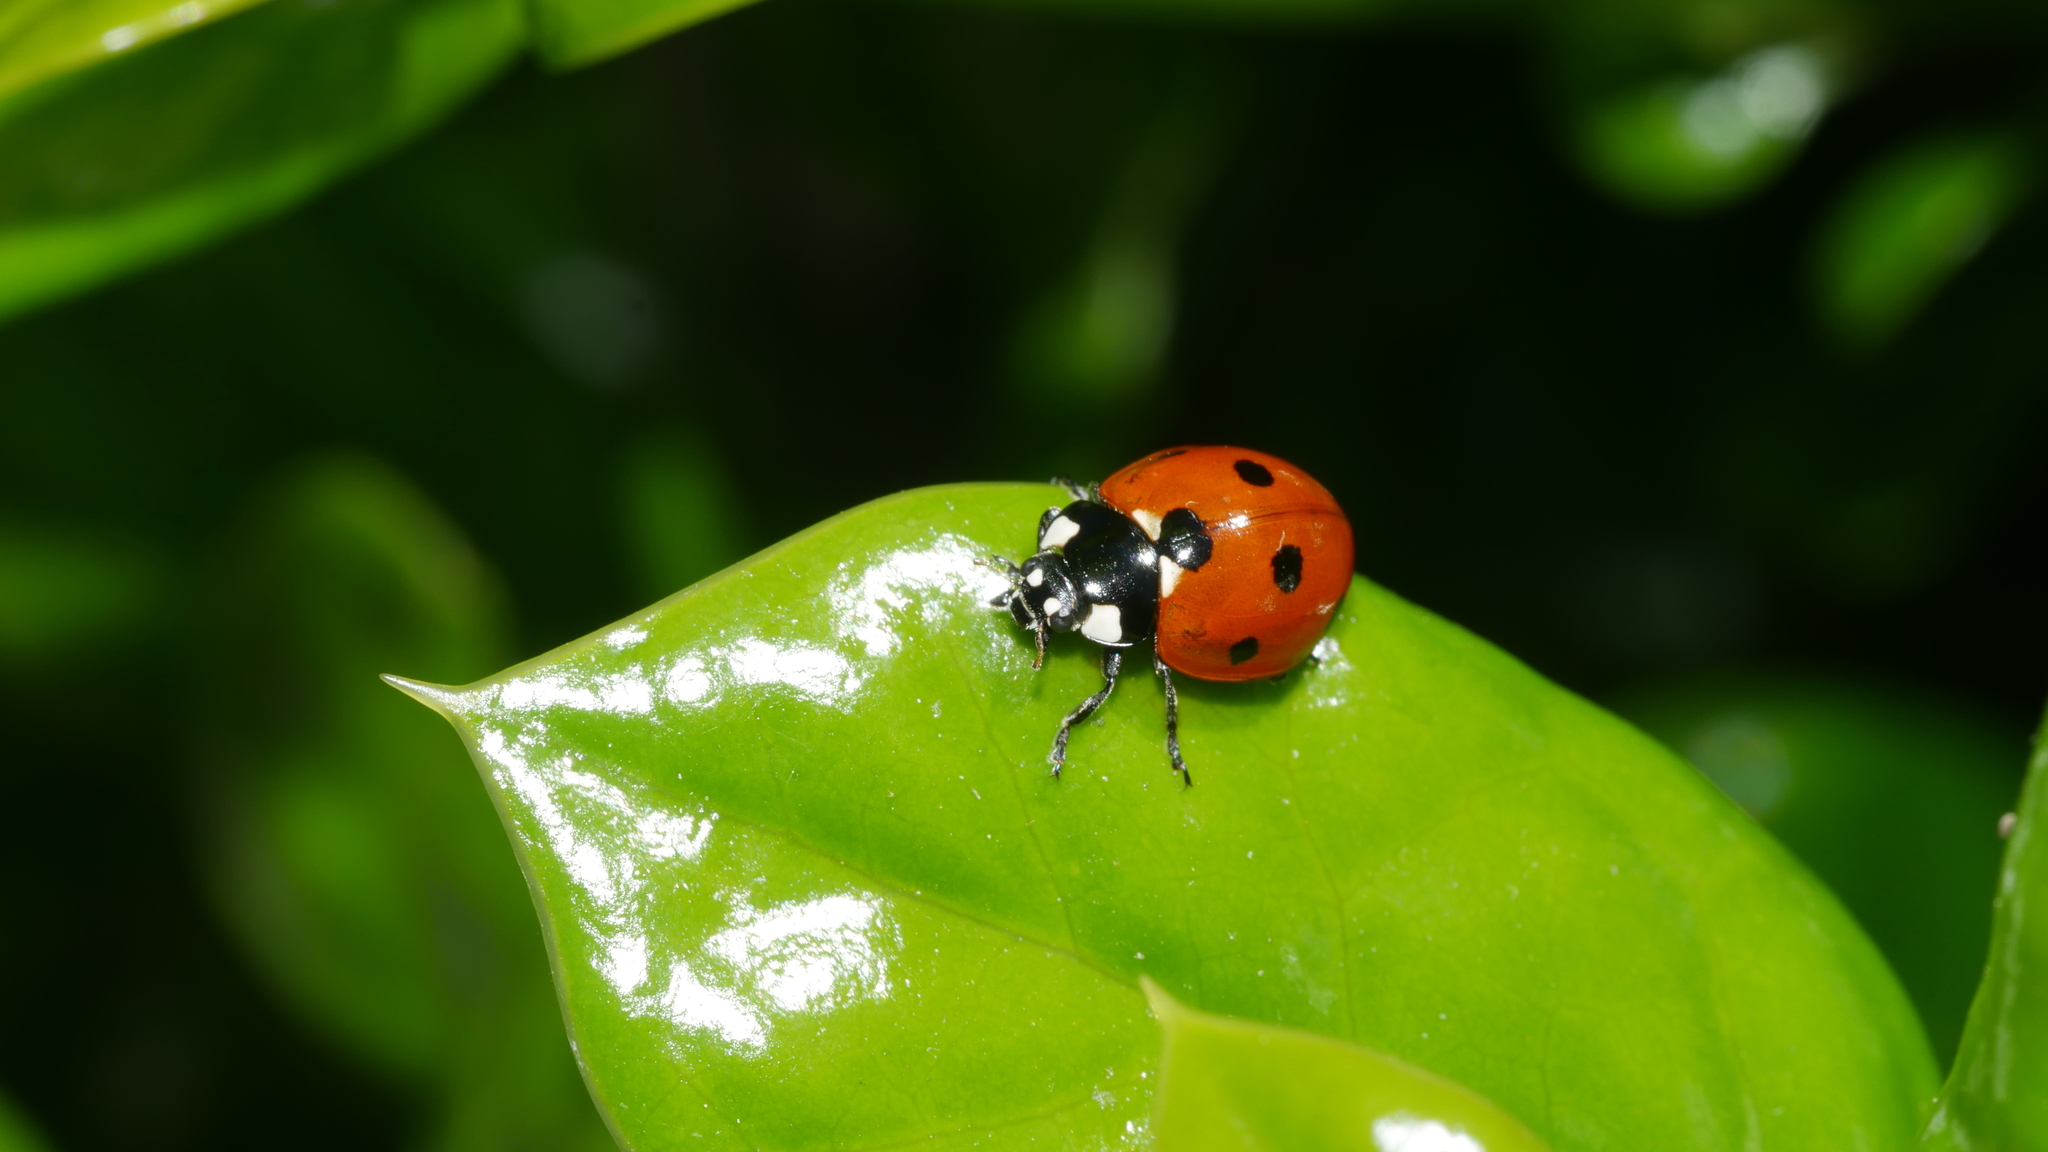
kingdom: Animalia
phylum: Arthropoda
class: Insecta
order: Coleoptera
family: Coccinellidae
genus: Coccinella
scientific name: Coccinella septempunctata
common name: Sevenspotted lady beetle
